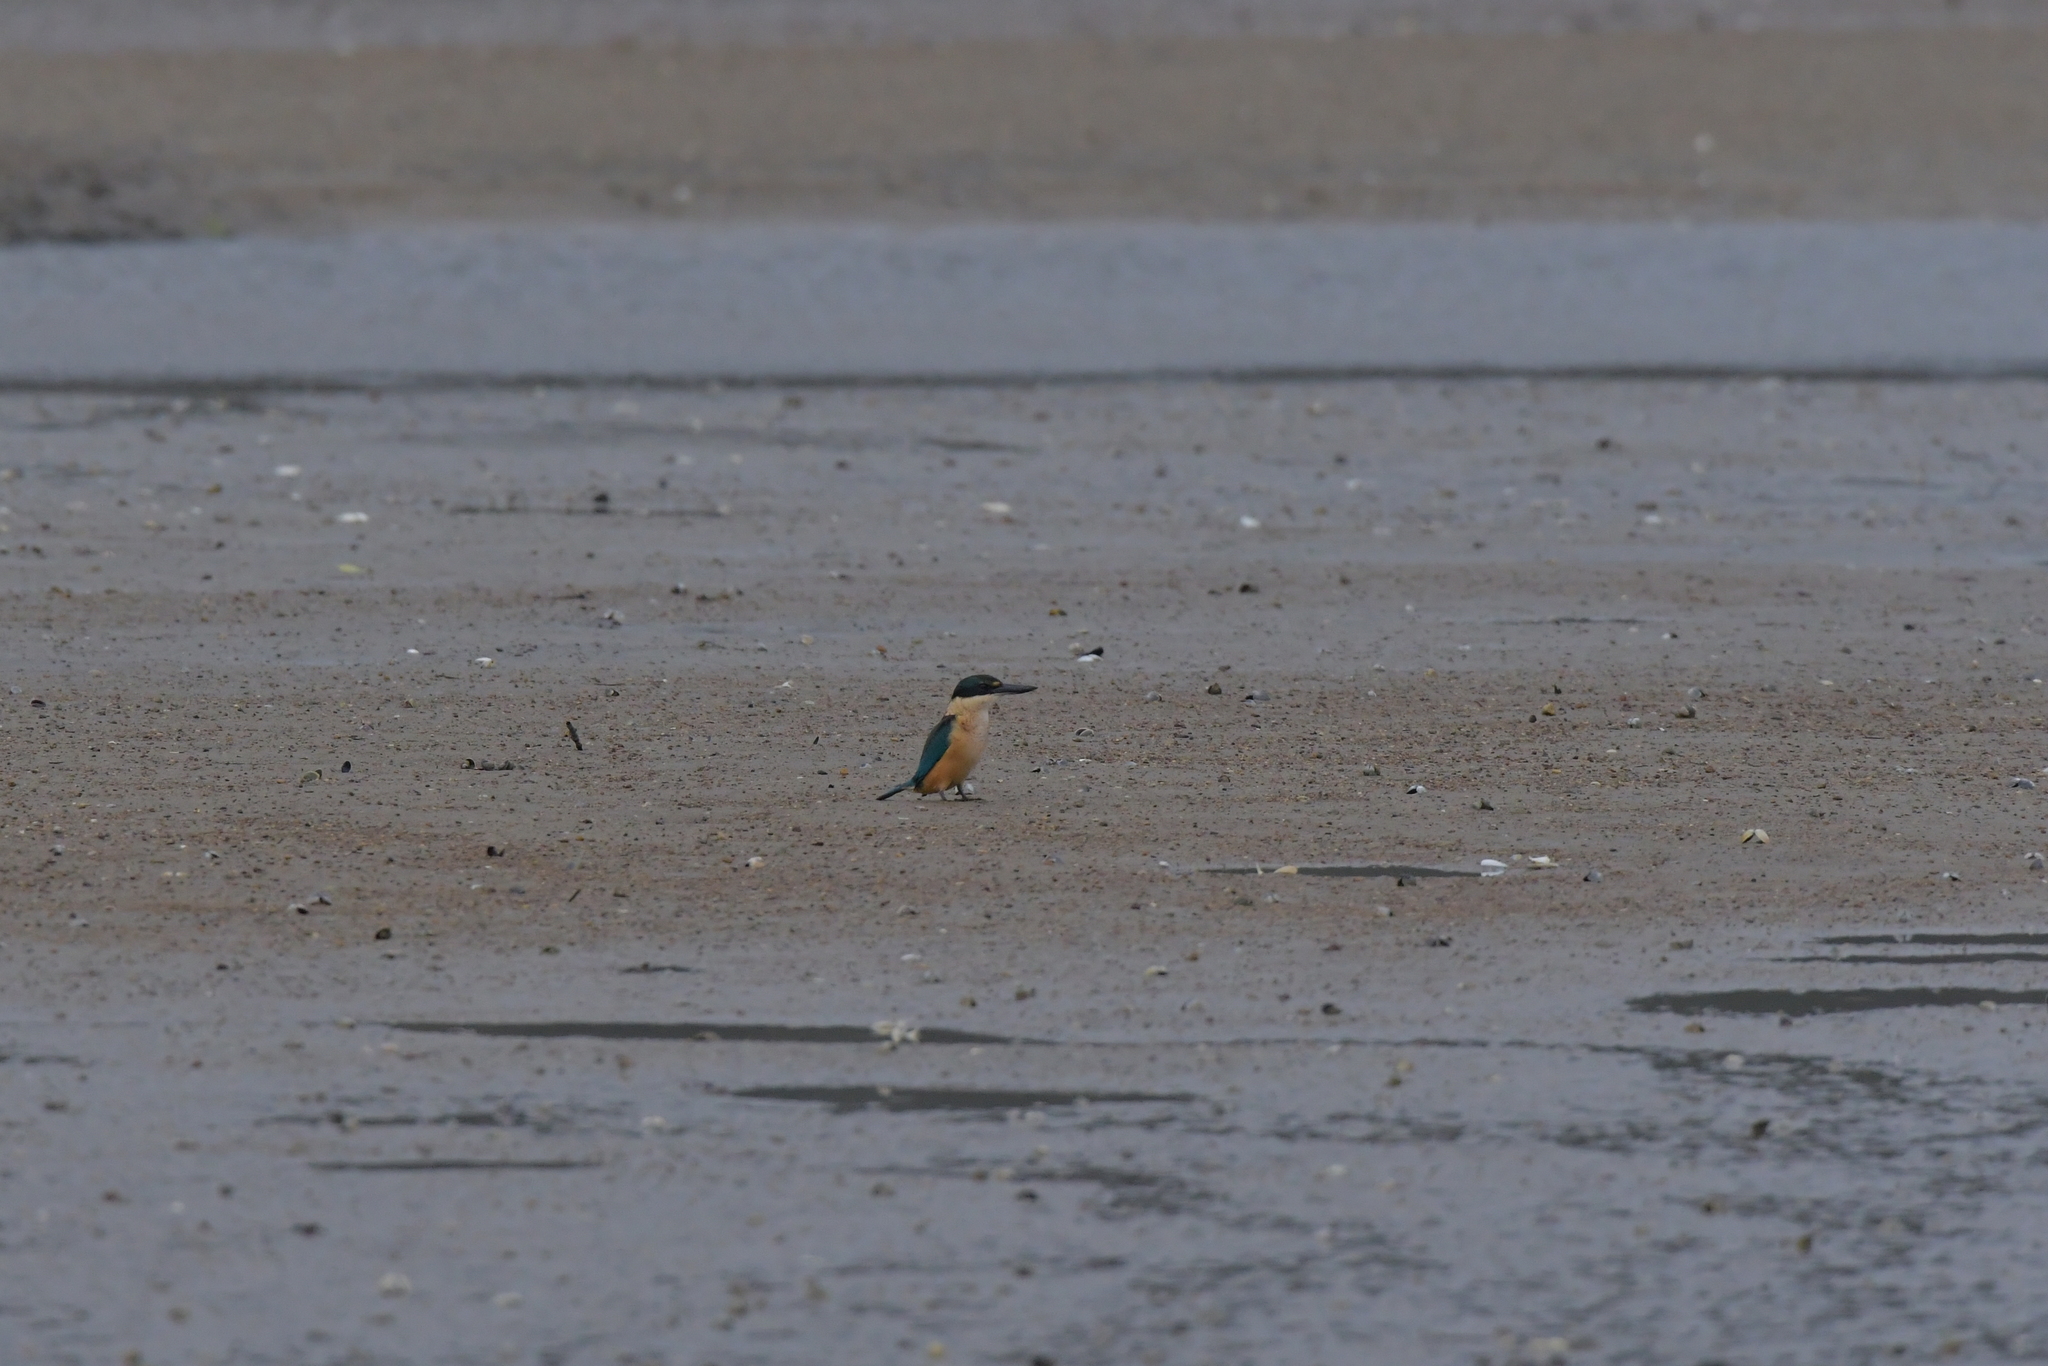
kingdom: Animalia
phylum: Chordata
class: Aves
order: Coraciiformes
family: Alcedinidae
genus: Todiramphus
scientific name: Todiramphus sanctus
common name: Sacred kingfisher
